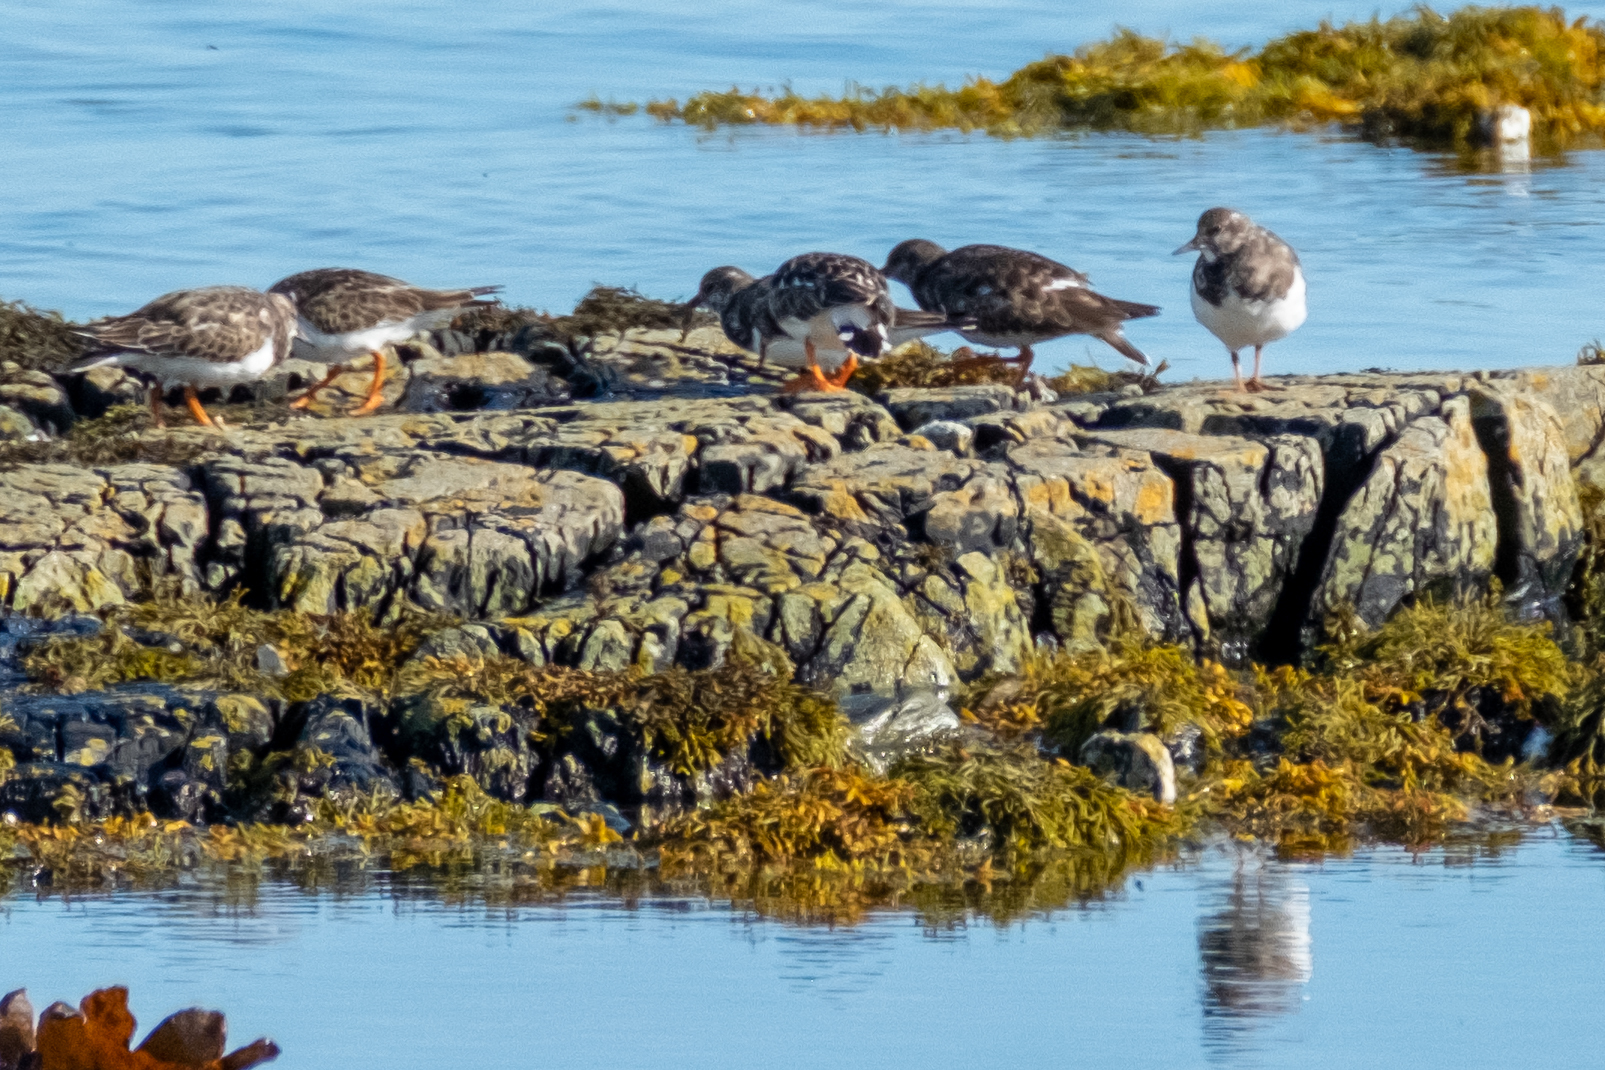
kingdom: Animalia
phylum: Chordata
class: Aves
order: Charadriiformes
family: Scolopacidae
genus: Arenaria
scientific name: Arenaria interpres
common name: Ruddy turnstone
